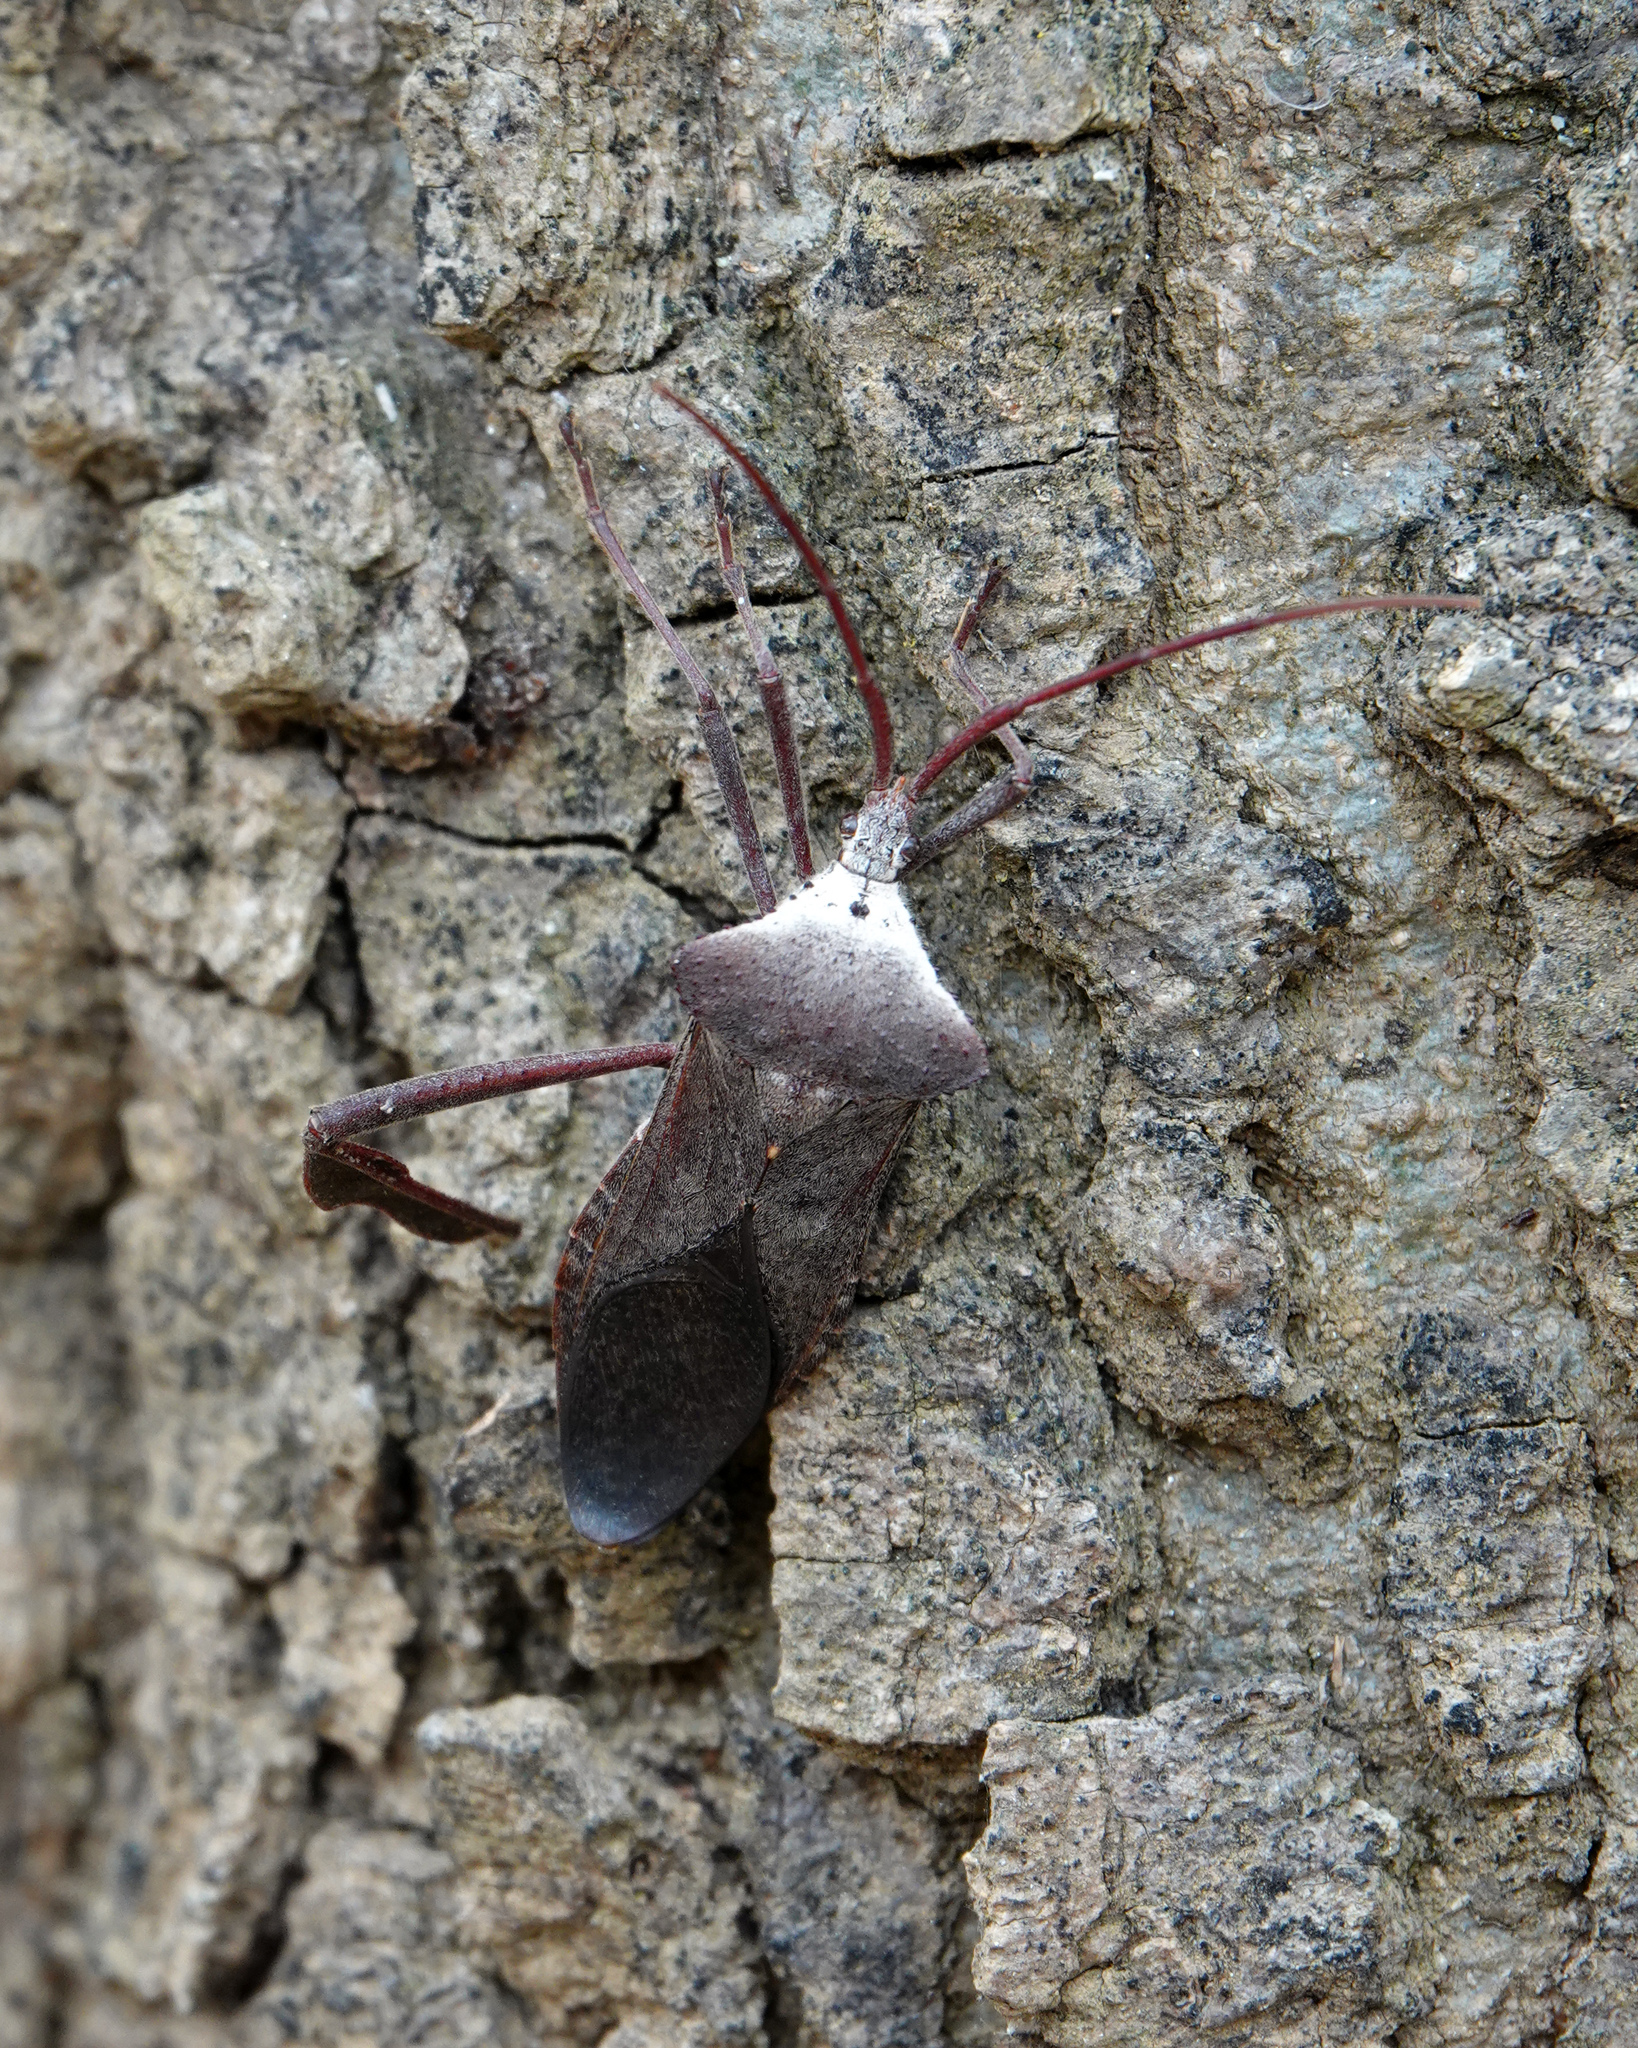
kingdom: Animalia
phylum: Arthropoda
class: Insecta
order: Hemiptera
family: Coreidae
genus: Acanthocephala
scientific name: Acanthocephala declivis
